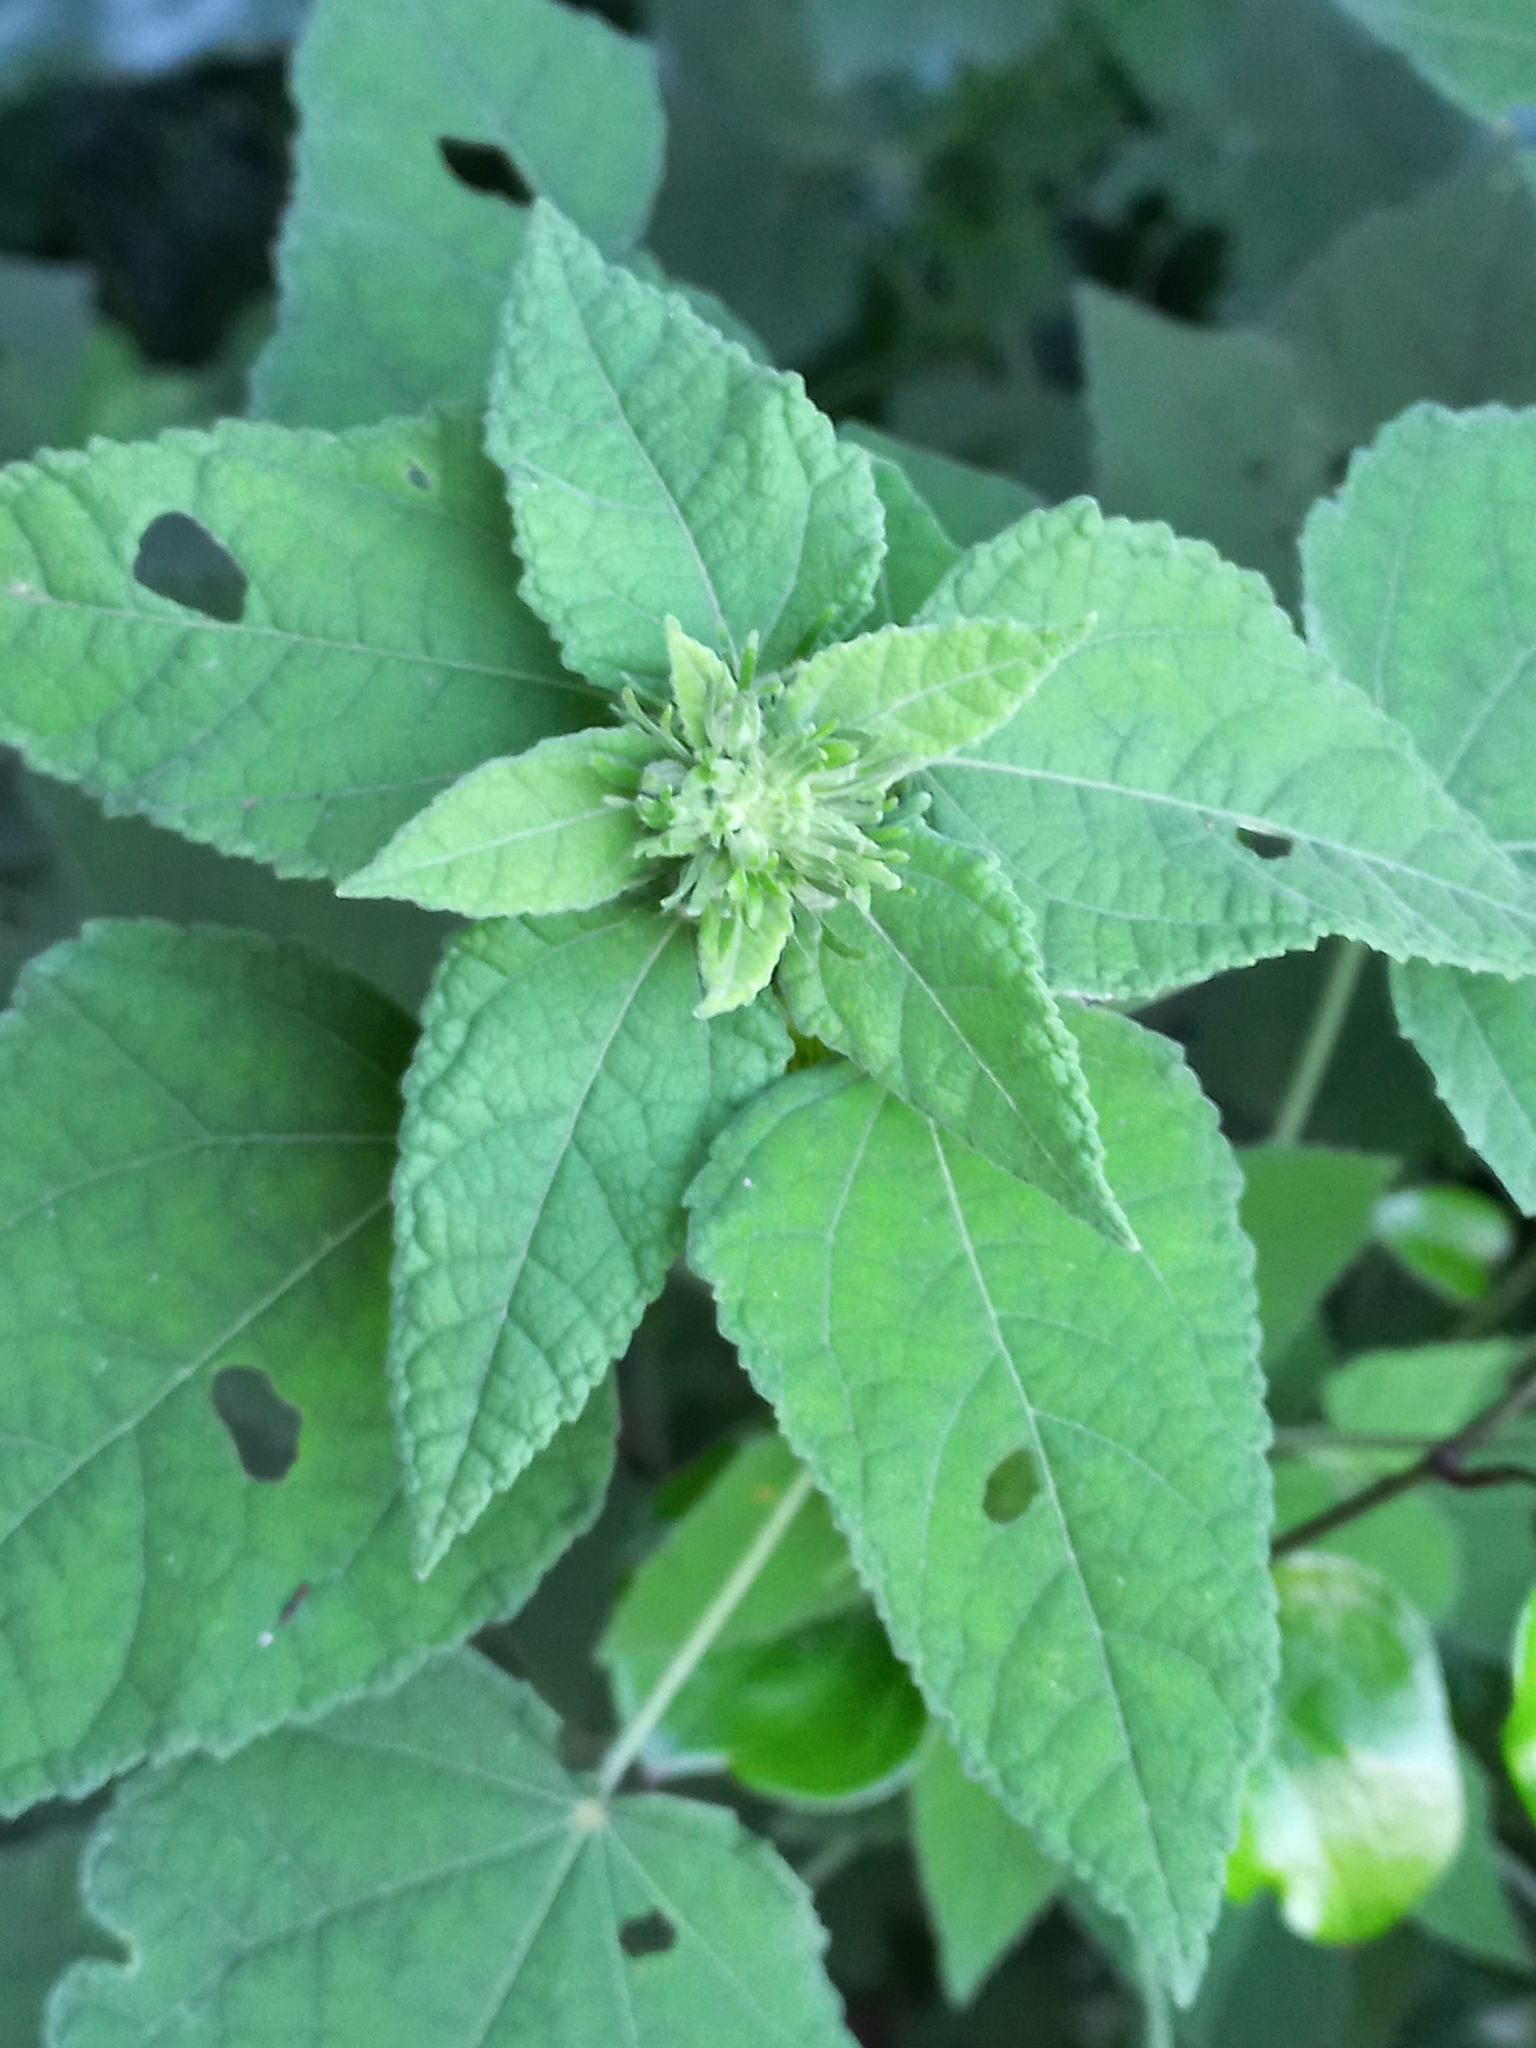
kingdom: Plantae
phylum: Tracheophyta
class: Magnoliopsida
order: Malvales
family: Malvaceae
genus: Pavonia
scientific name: Pavonia columella
